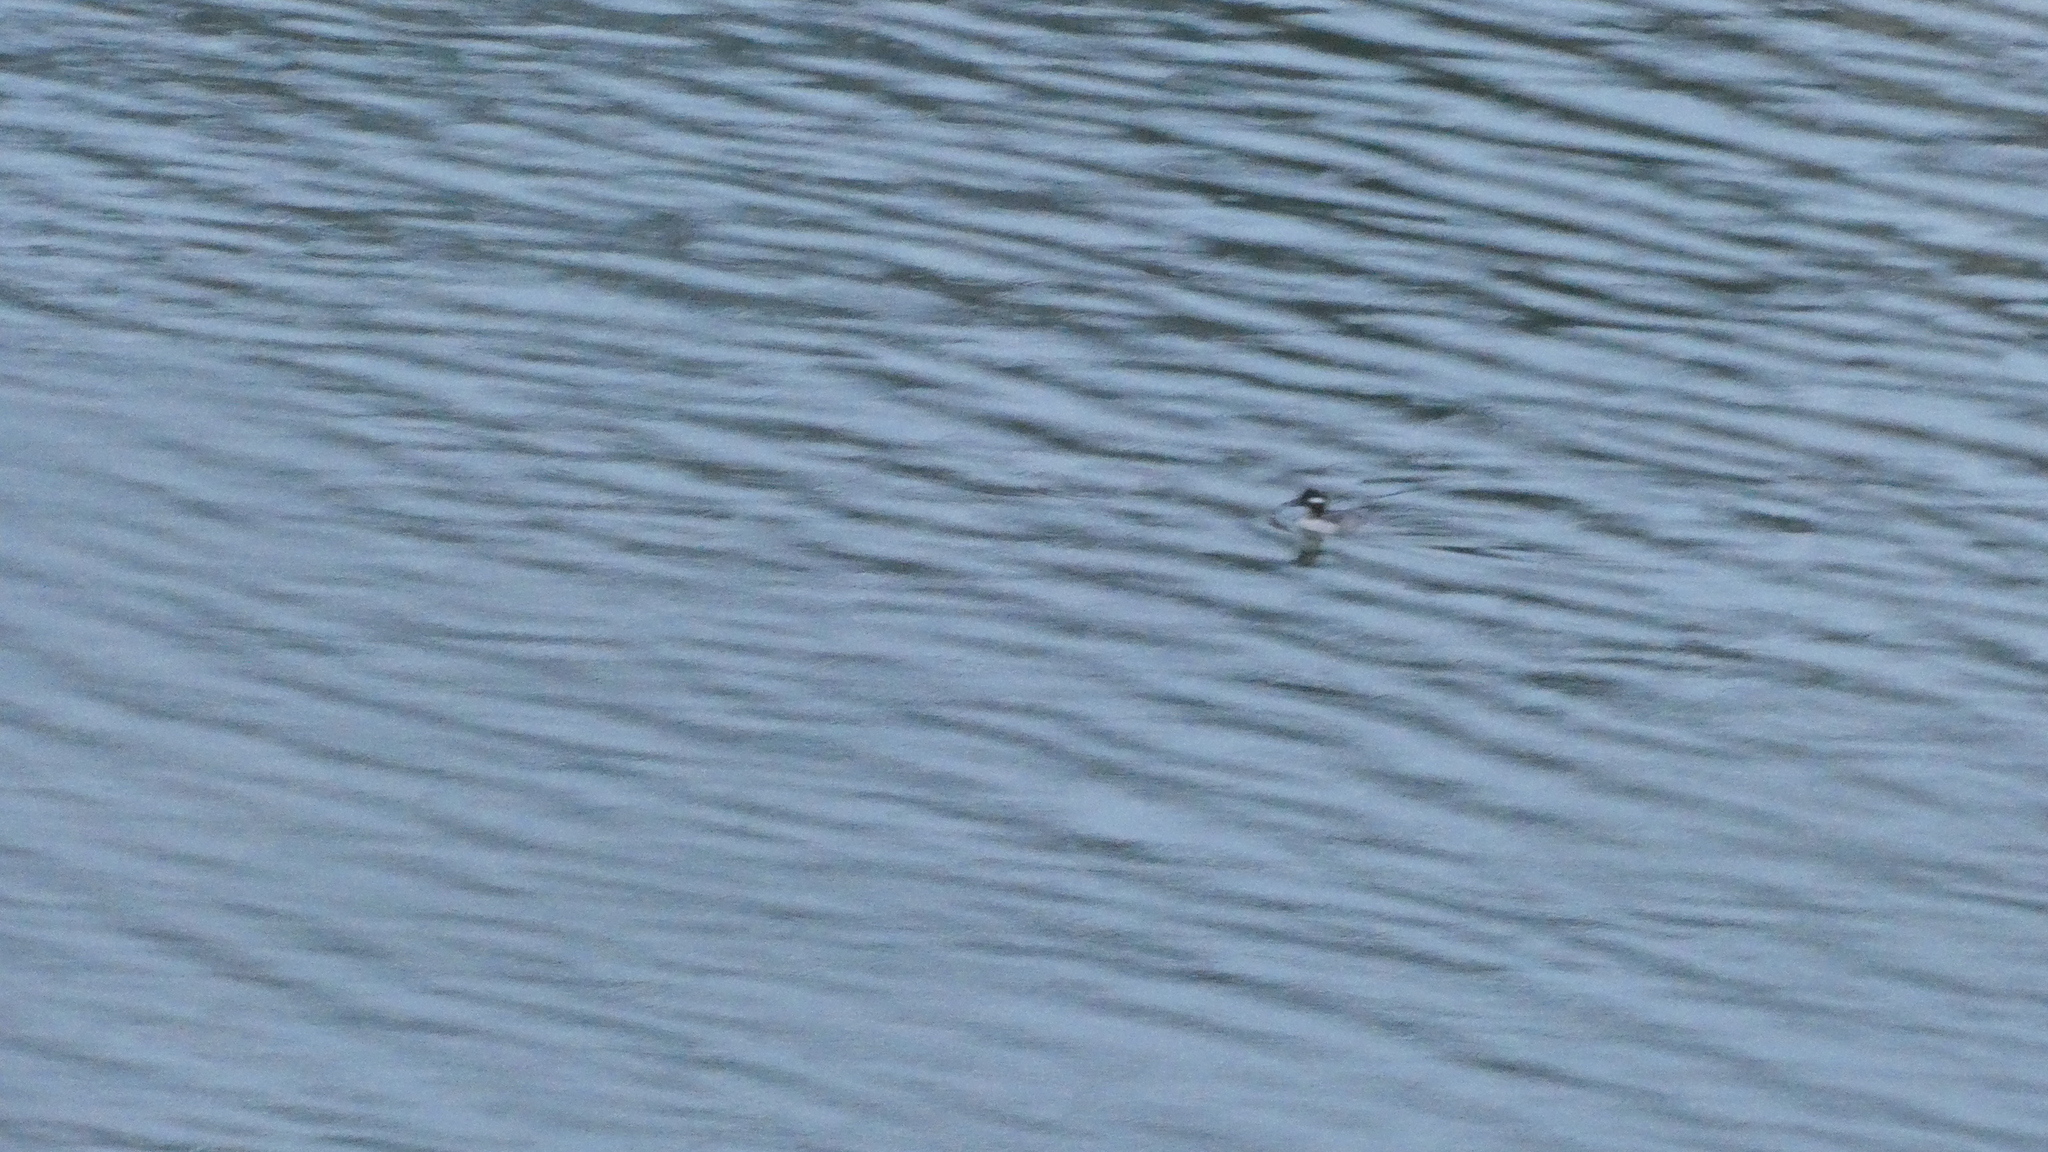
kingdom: Animalia
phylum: Chordata
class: Aves
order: Anseriformes
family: Anatidae
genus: Bucephala
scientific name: Bucephala albeola
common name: Bufflehead
